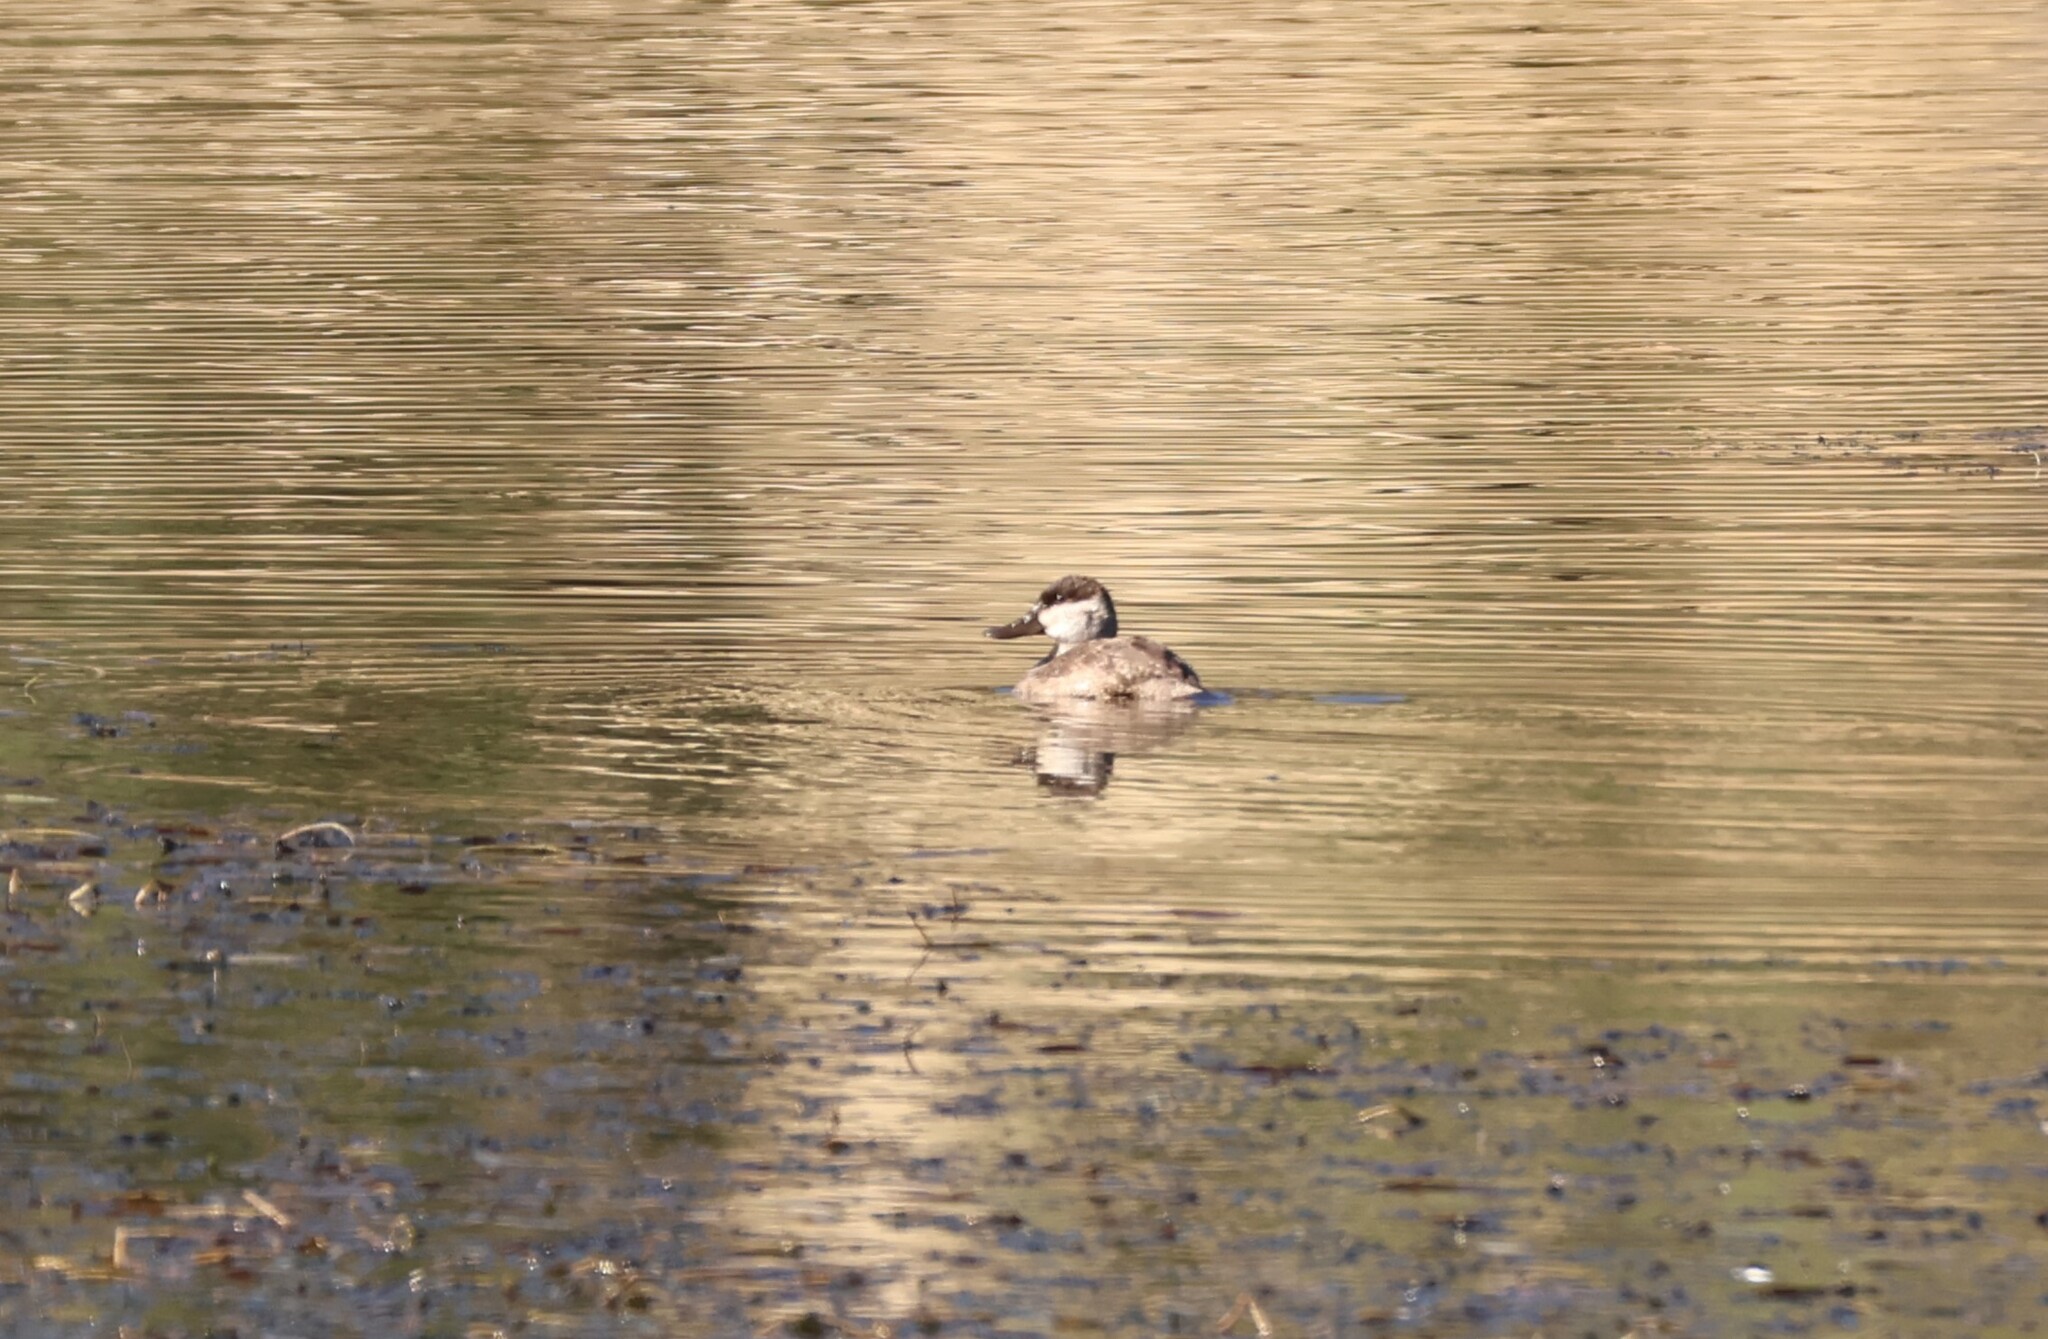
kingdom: Animalia
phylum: Chordata
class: Aves
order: Anseriformes
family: Anatidae
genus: Oxyura
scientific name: Oxyura jamaicensis
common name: Ruddy duck
